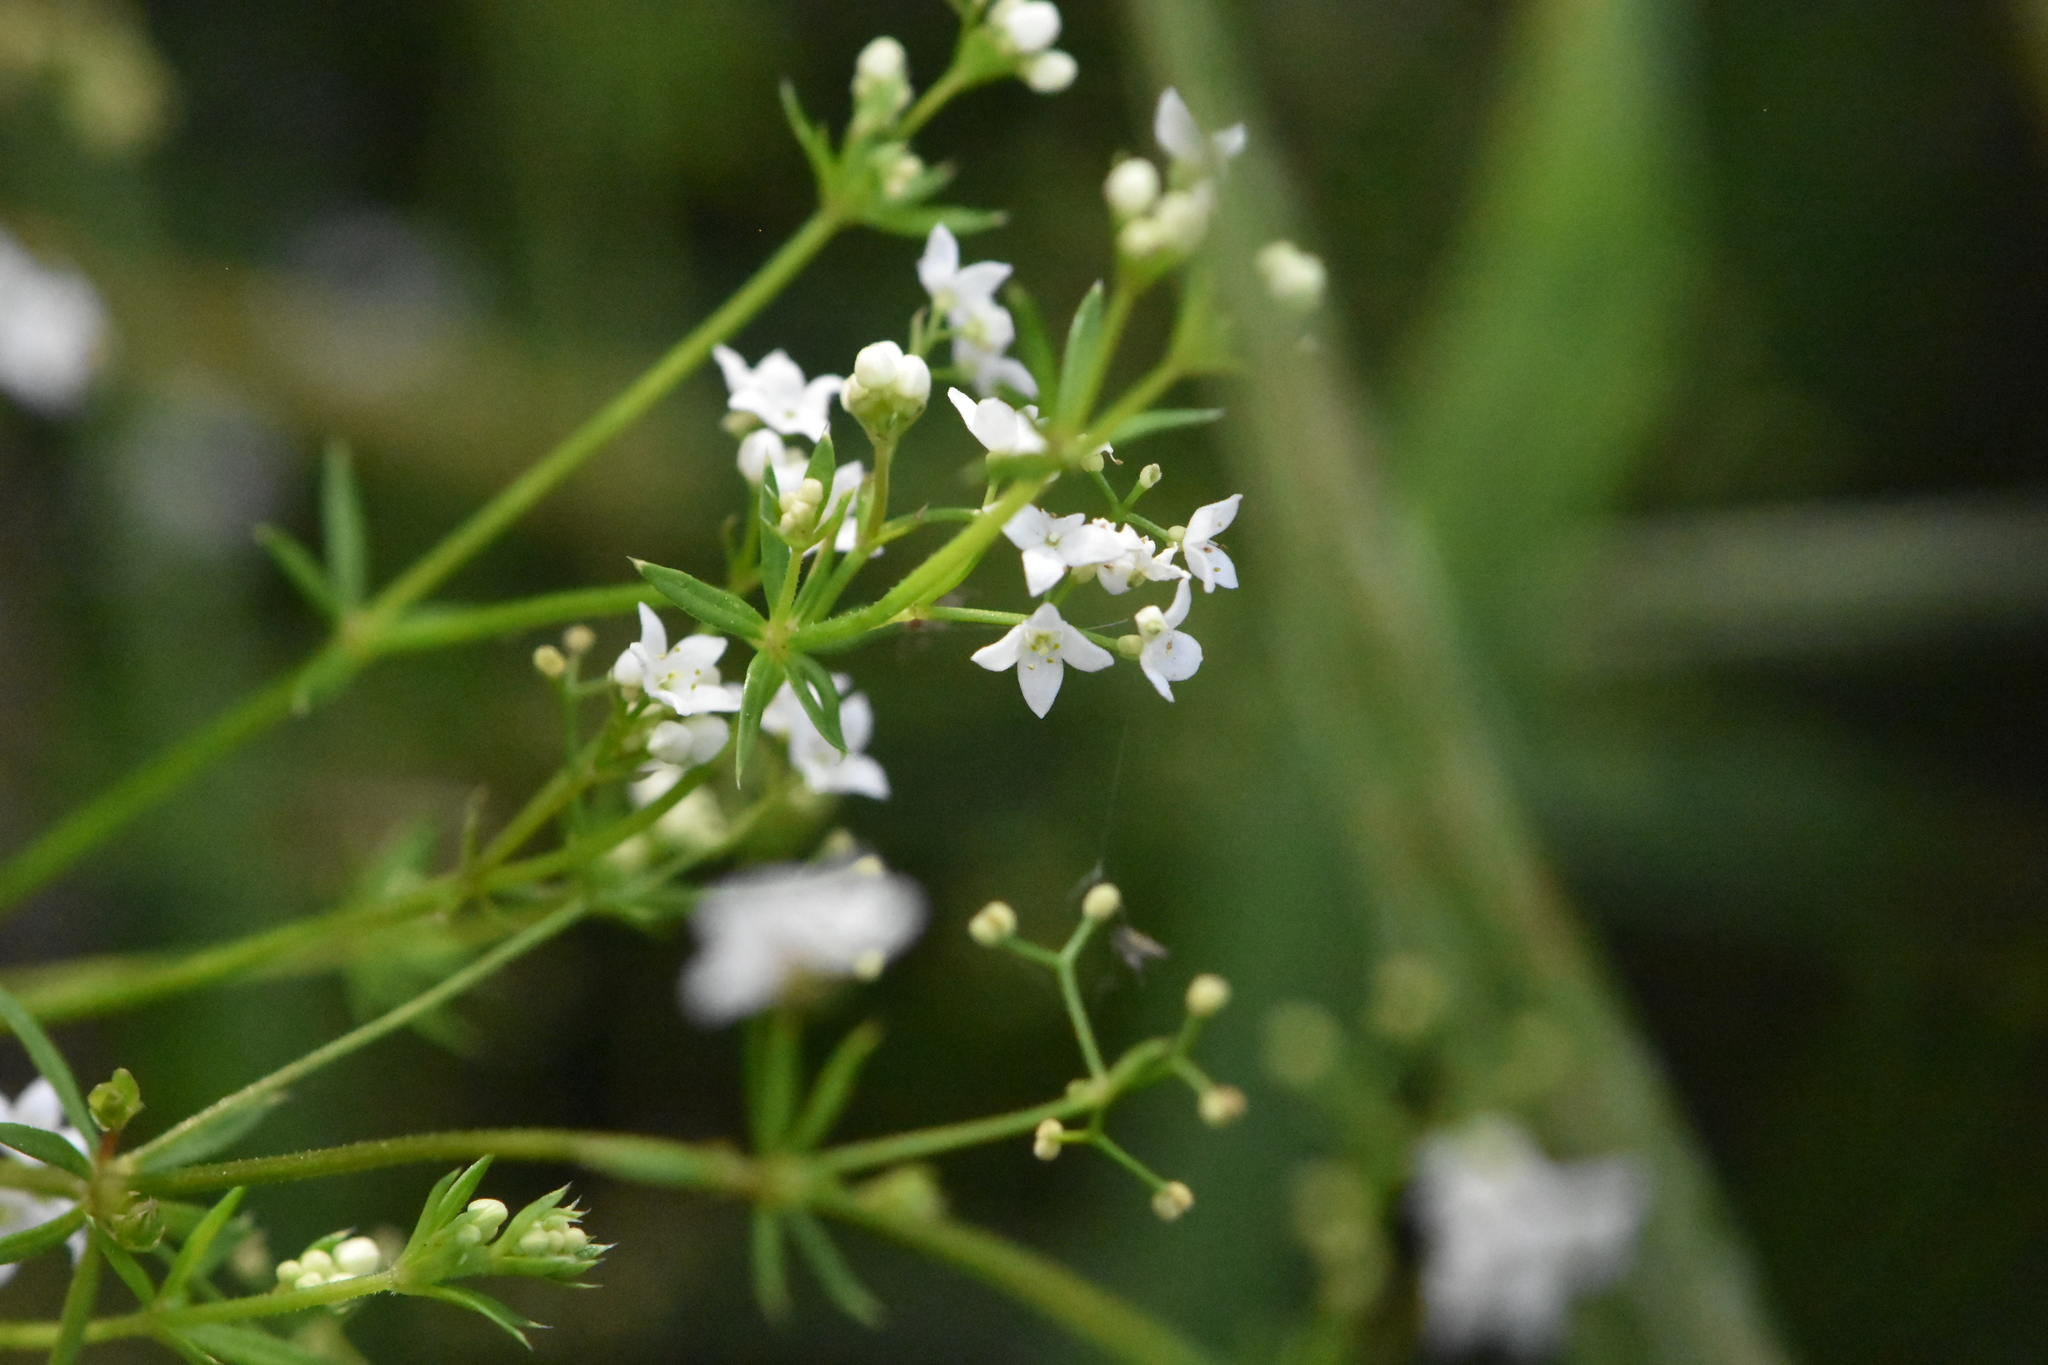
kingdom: Plantae
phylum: Tracheophyta
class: Magnoliopsida
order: Gentianales
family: Rubiaceae
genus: Galium
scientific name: Galium uliginosum
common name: Fen bedstraw
